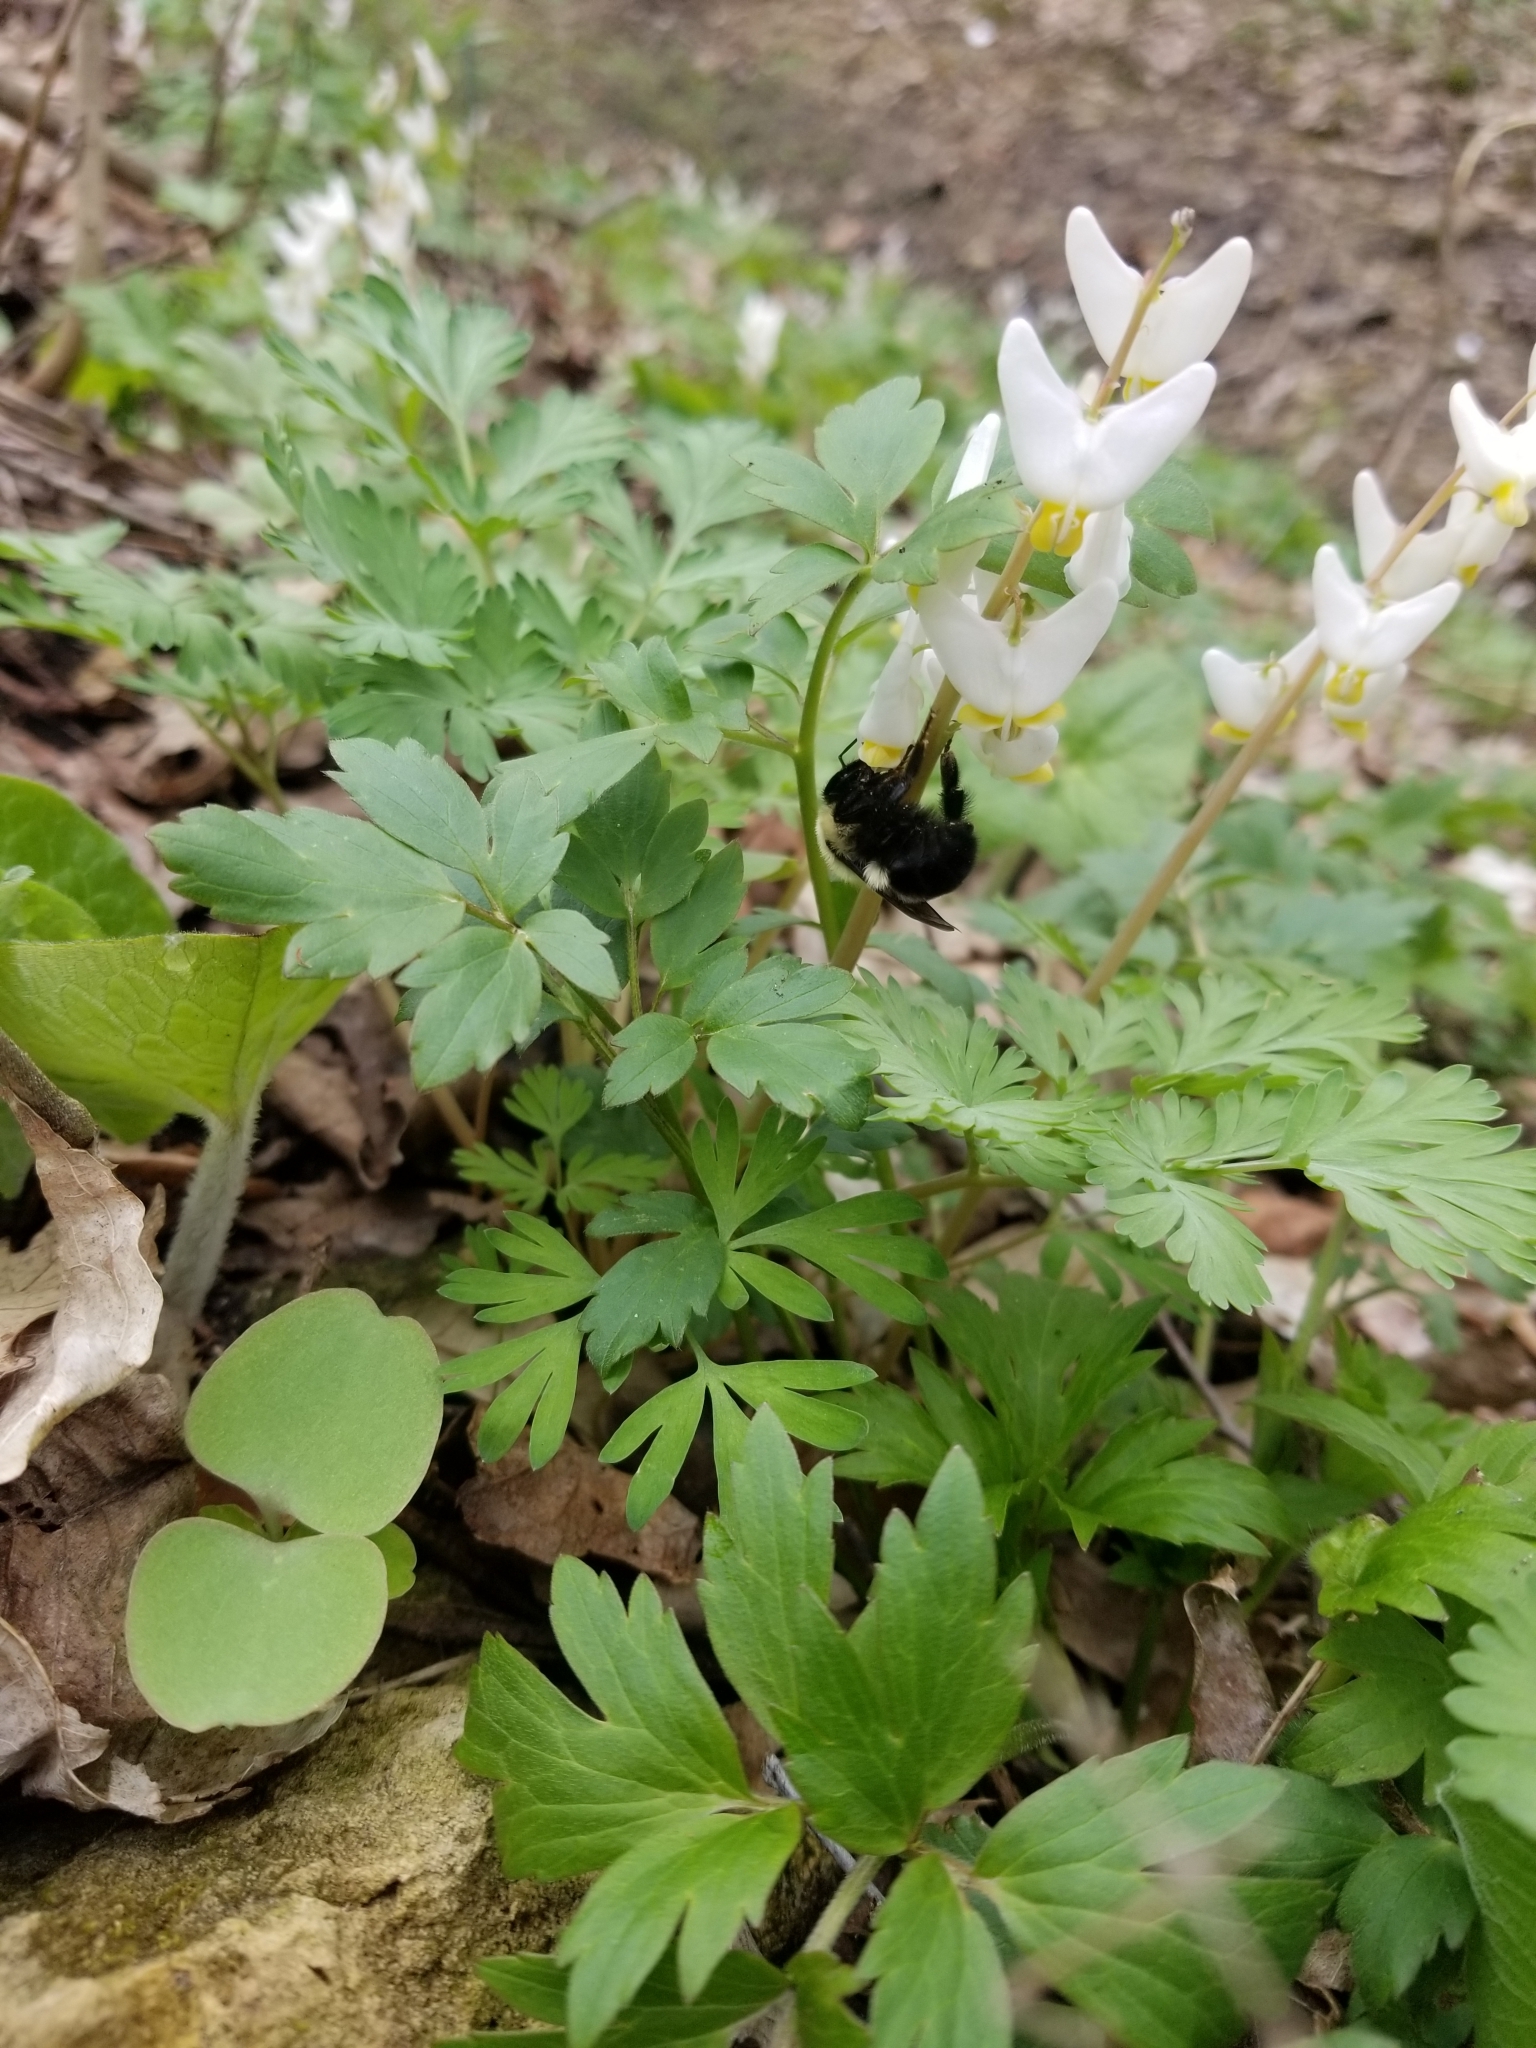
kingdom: Animalia
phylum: Arthropoda
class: Insecta
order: Hymenoptera
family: Apidae
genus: Bombus
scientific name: Bombus bimaculatus
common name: Two-spotted bumble bee
